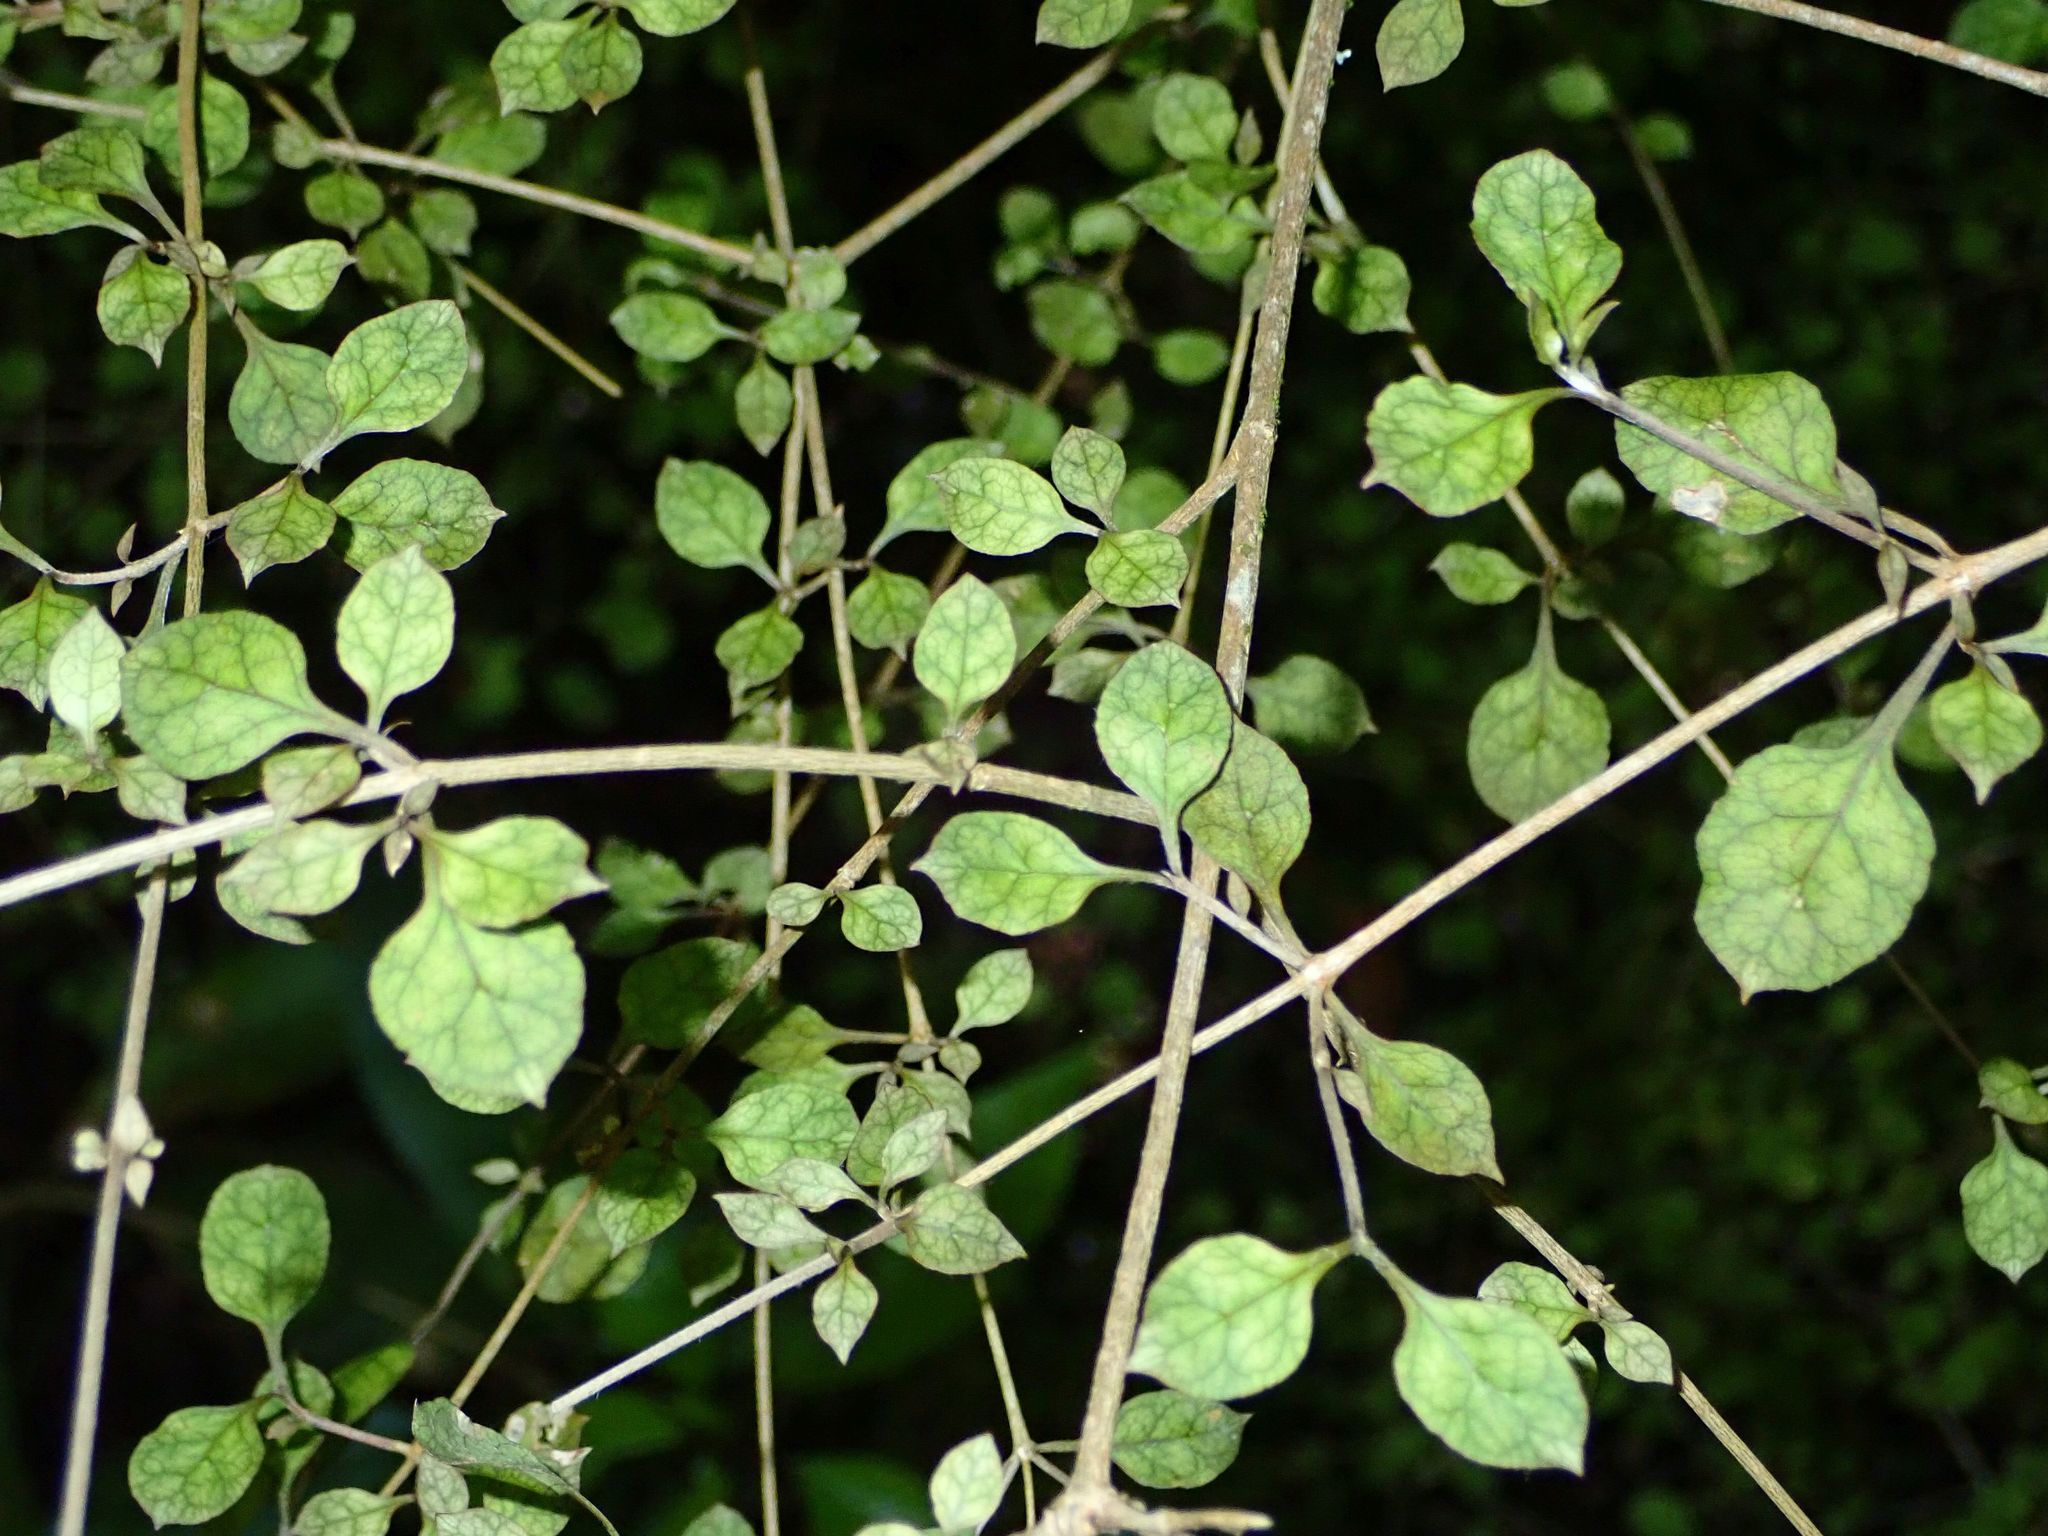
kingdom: Plantae
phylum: Tracheophyta
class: Magnoliopsida
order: Gentianales
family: Rubiaceae
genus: Coprosma
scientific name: Coprosma areolata
